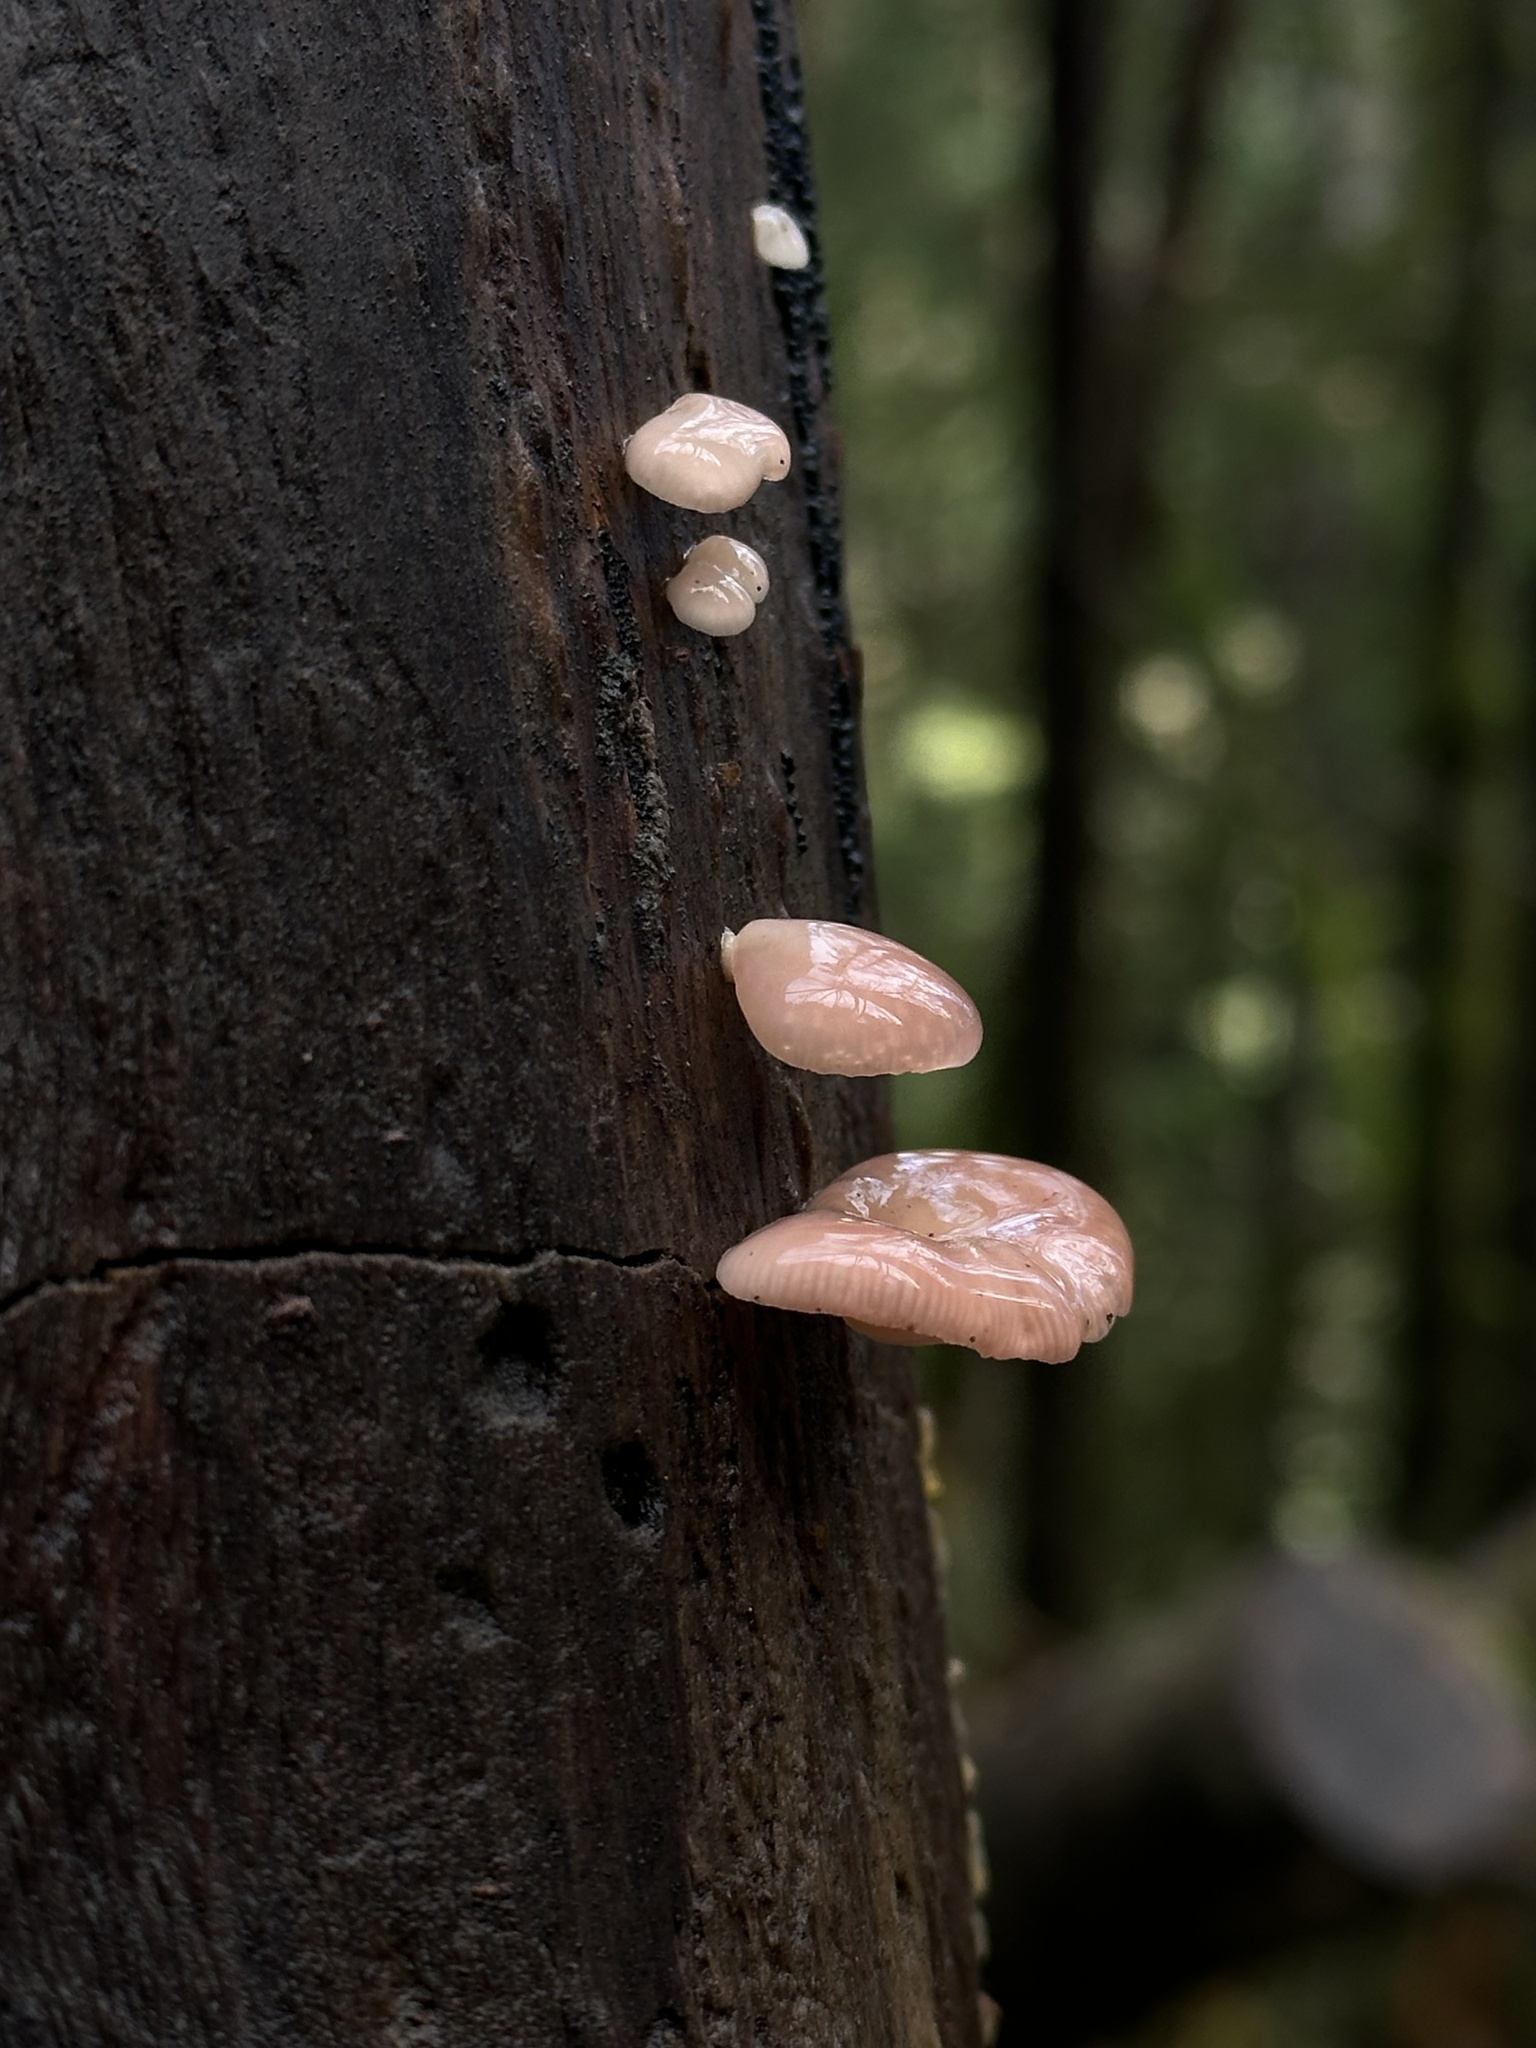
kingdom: Fungi
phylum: Basidiomycota
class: Agaricomycetes
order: Agaricales
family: Mycenaceae
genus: Panellus
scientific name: Panellus longinquus
